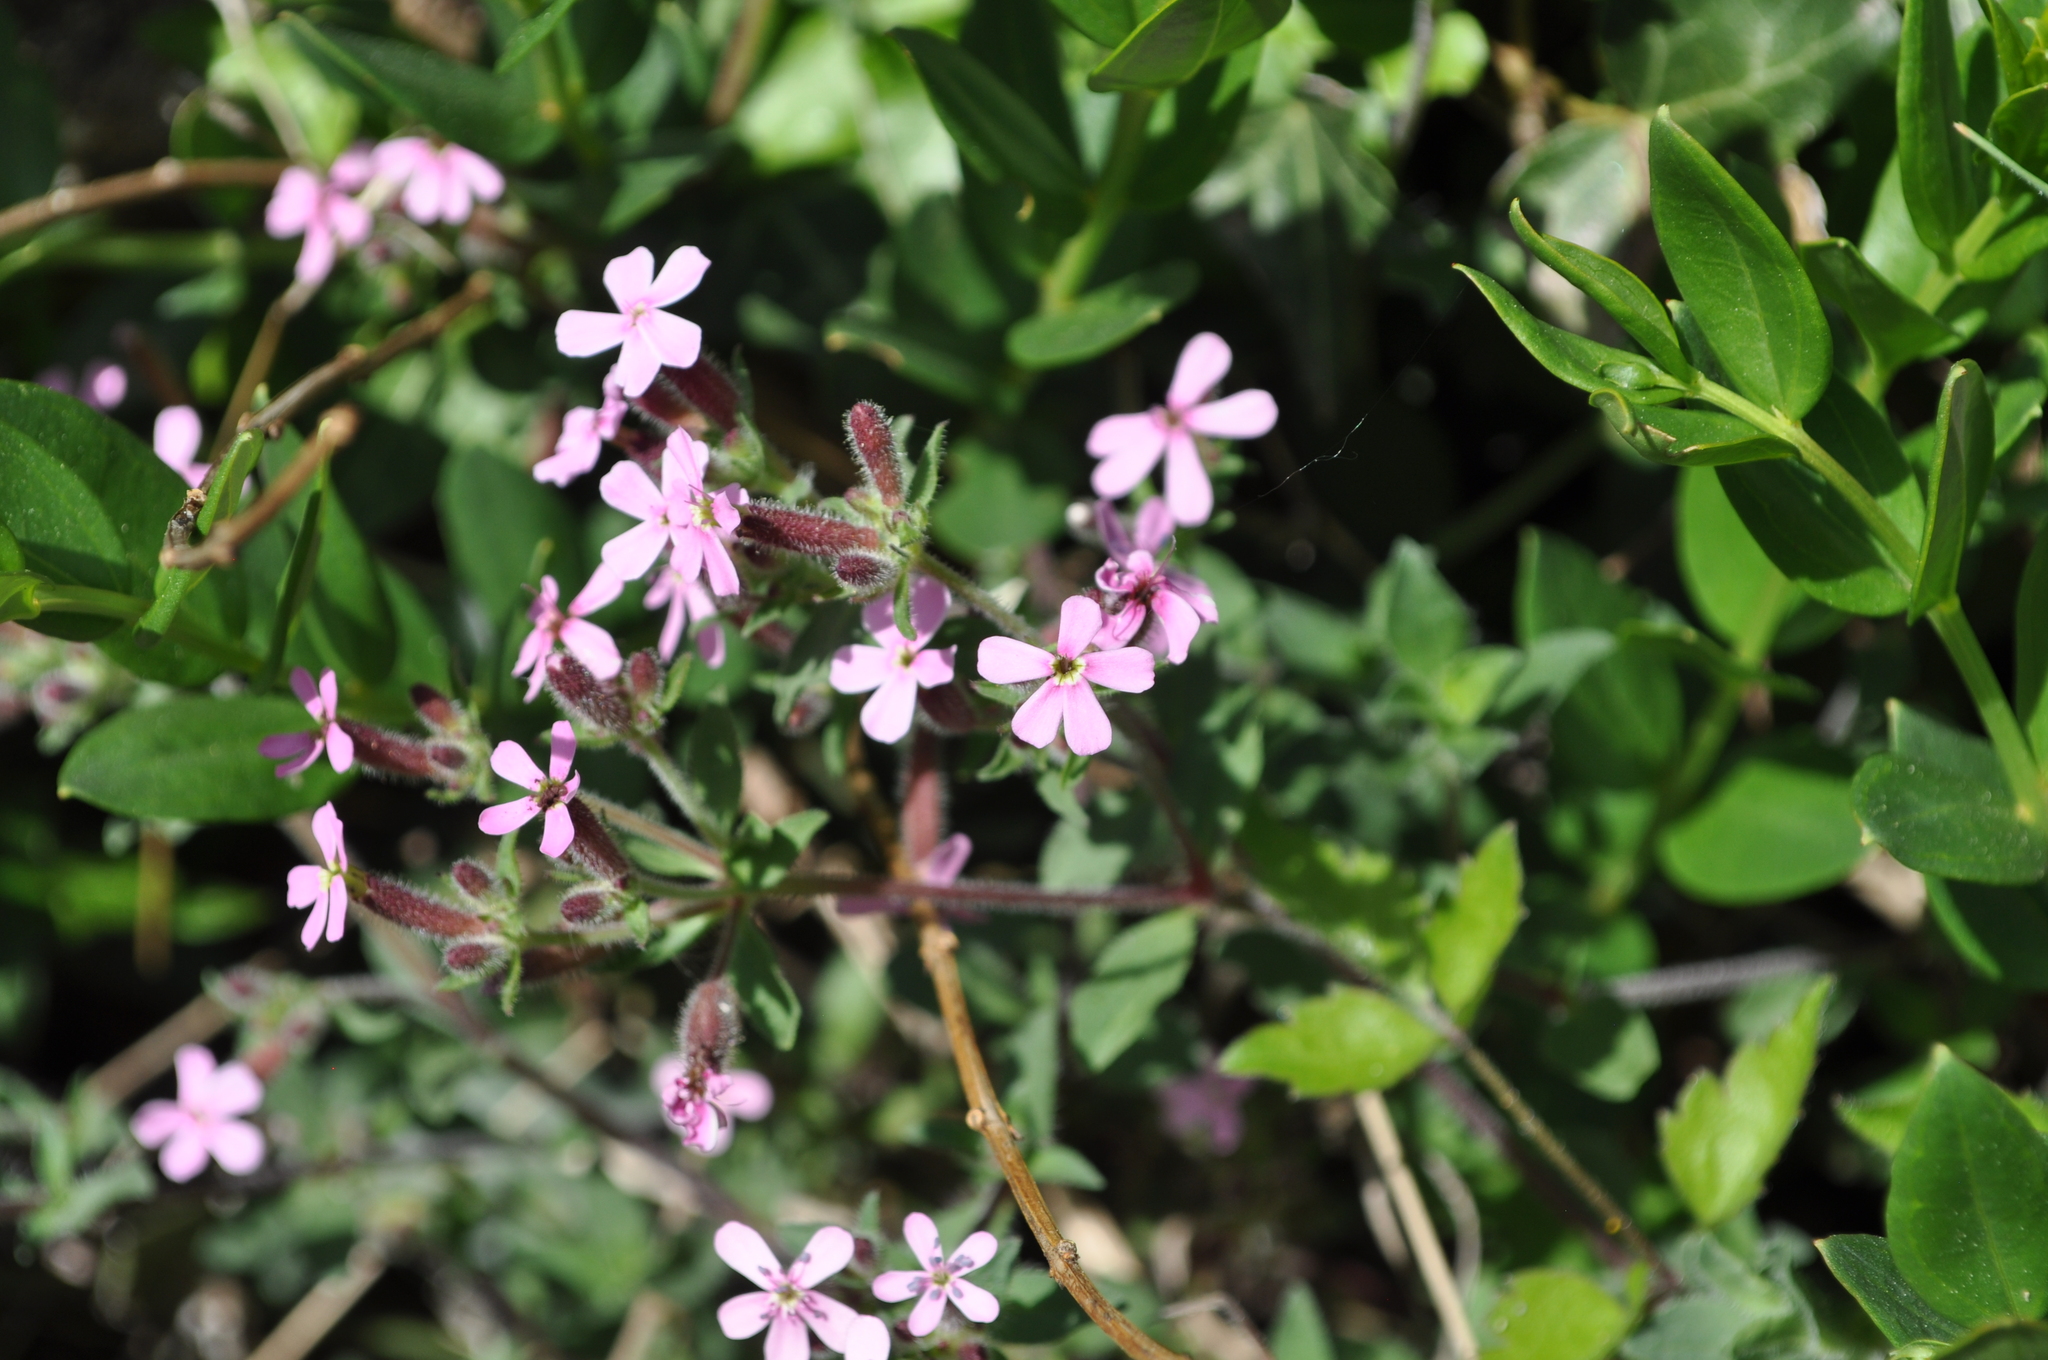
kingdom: Plantae
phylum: Tracheophyta
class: Magnoliopsida
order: Caryophyllales
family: Caryophyllaceae
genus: Saponaria
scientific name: Saponaria ocymoides
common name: Rock soapwort
